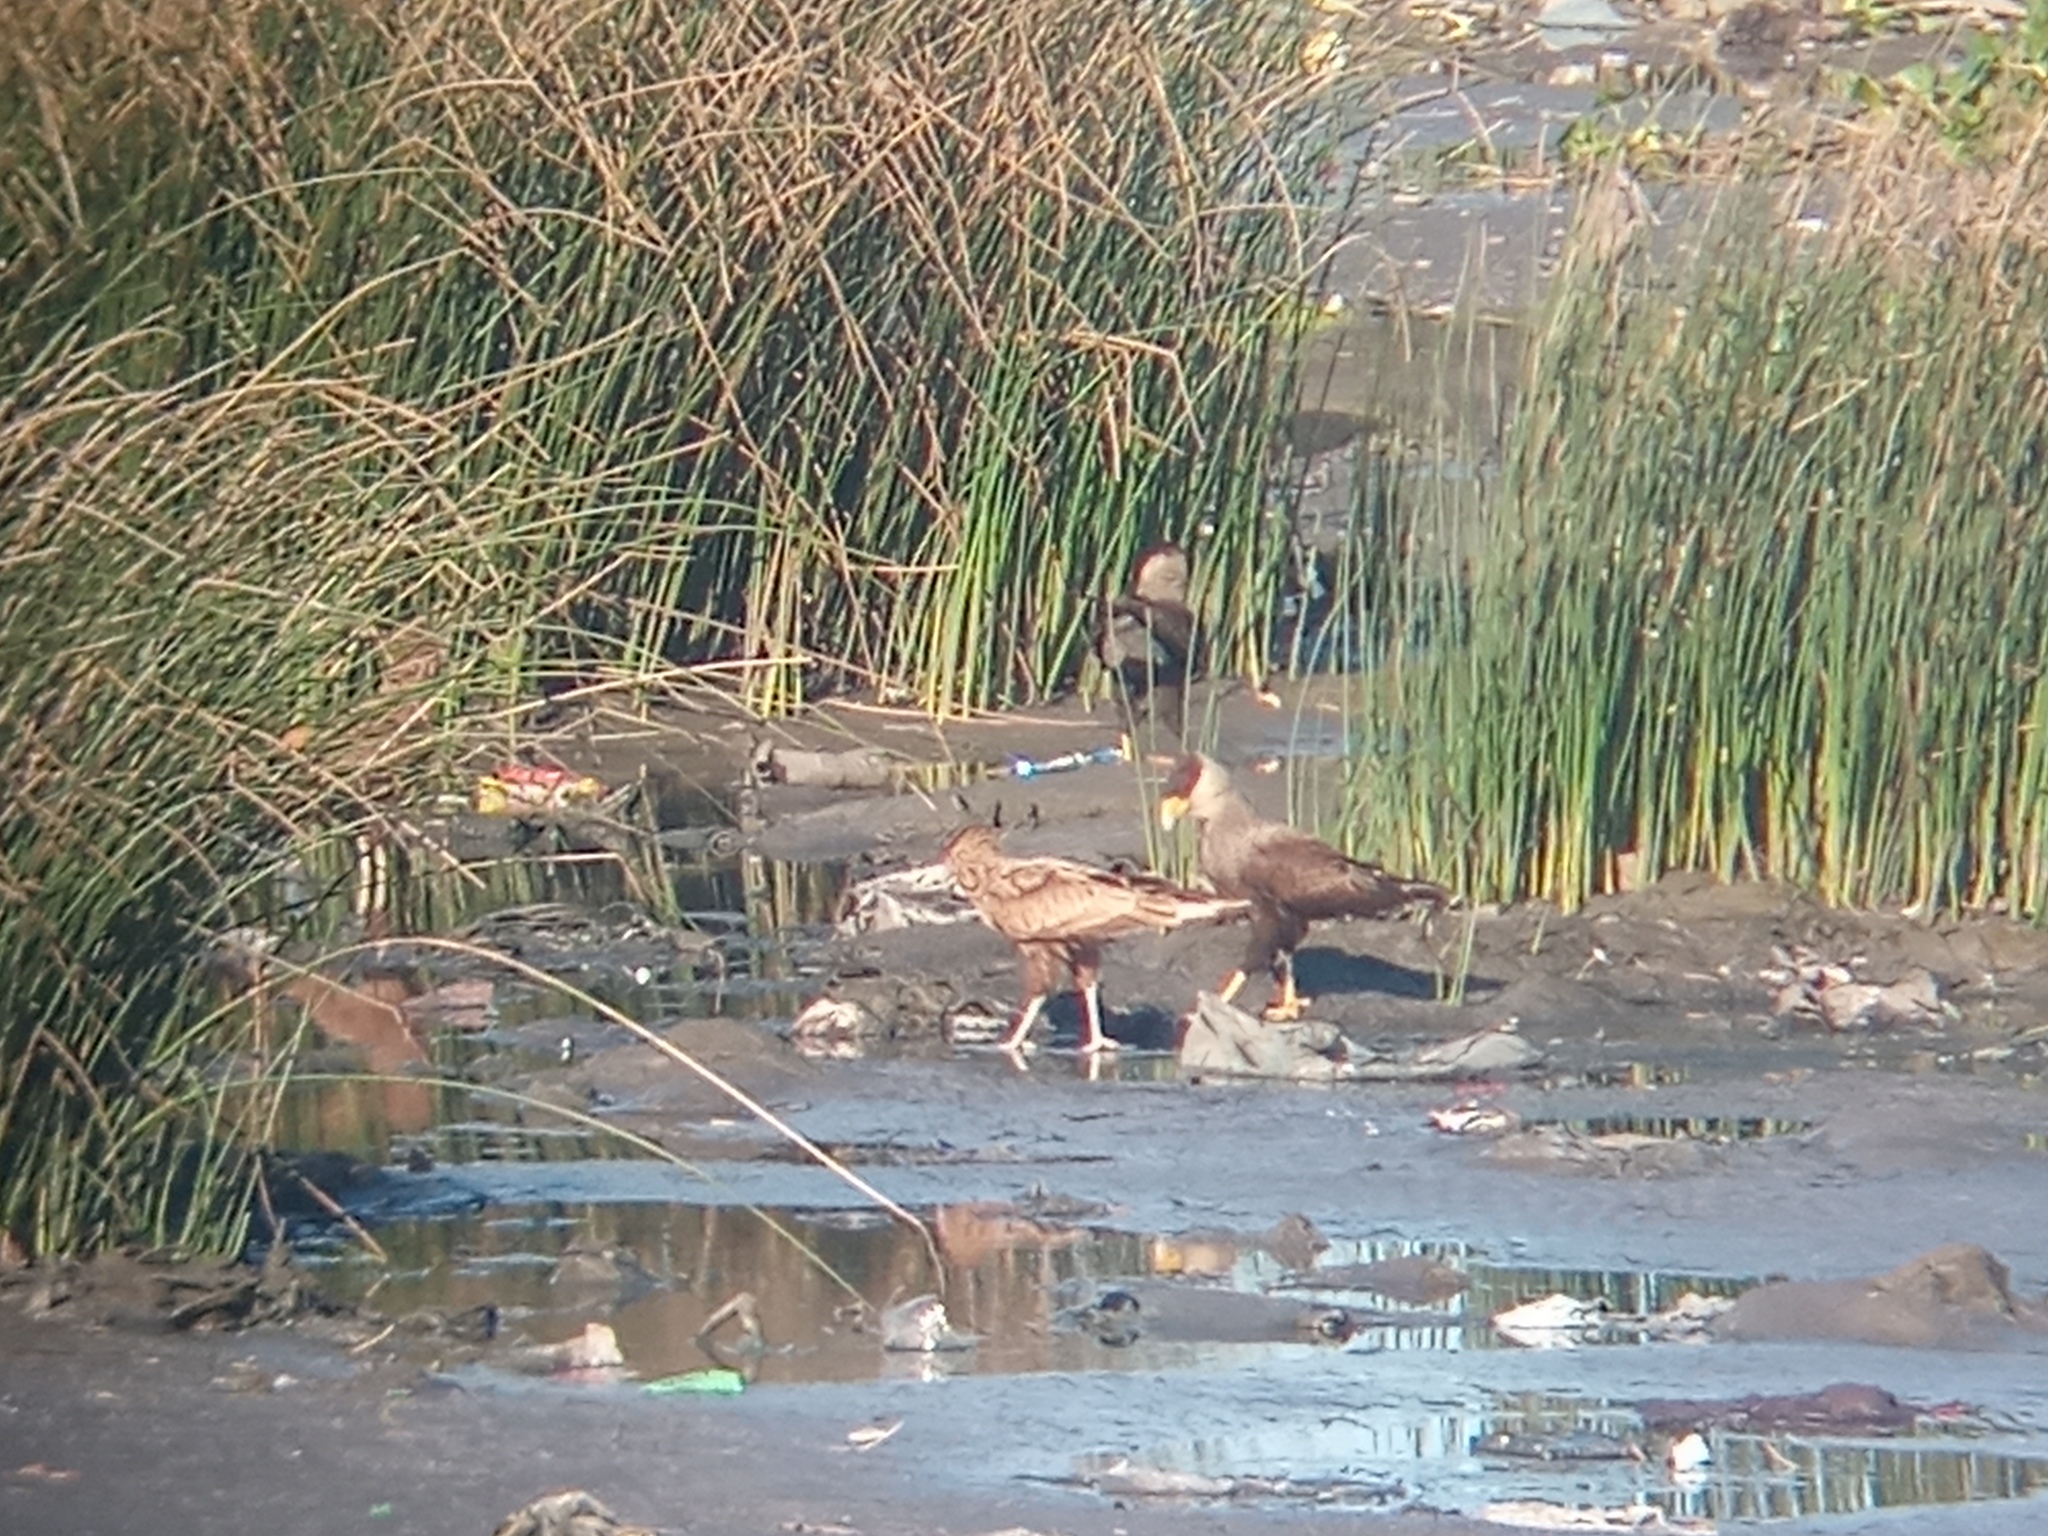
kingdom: Animalia
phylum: Chordata
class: Aves
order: Falconiformes
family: Falconidae
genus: Caracara
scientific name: Caracara plancus
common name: Southern caracara
